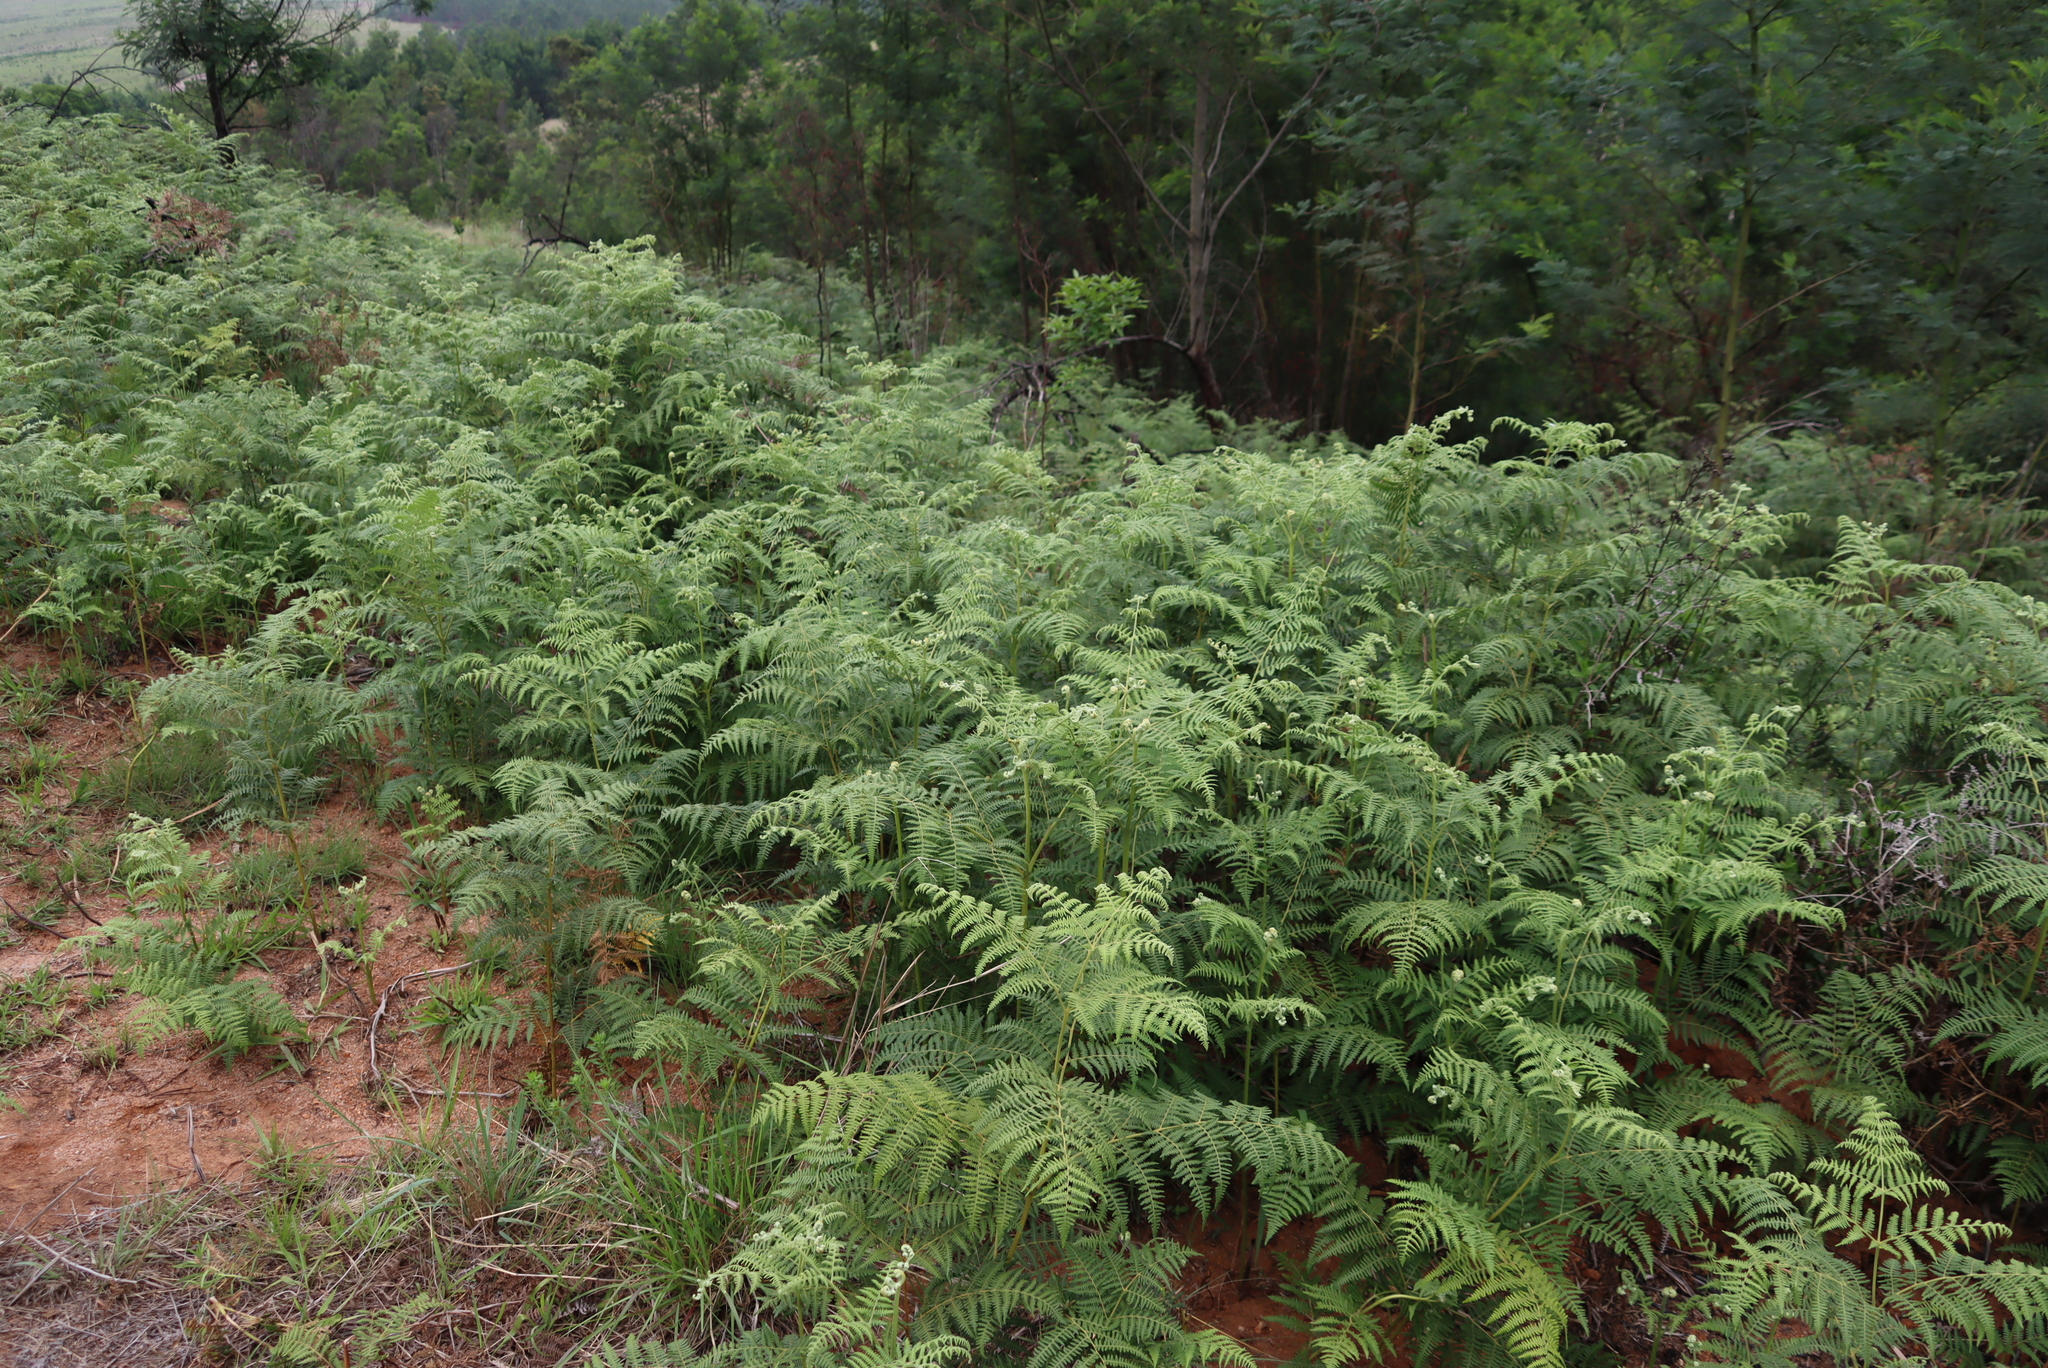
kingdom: Plantae
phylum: Tracheophyta
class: Polypodiopsida
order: Polypodiales
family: Dennstaedtiaceae
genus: Pteridium
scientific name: Pteridium aquilinum
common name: Bracken
